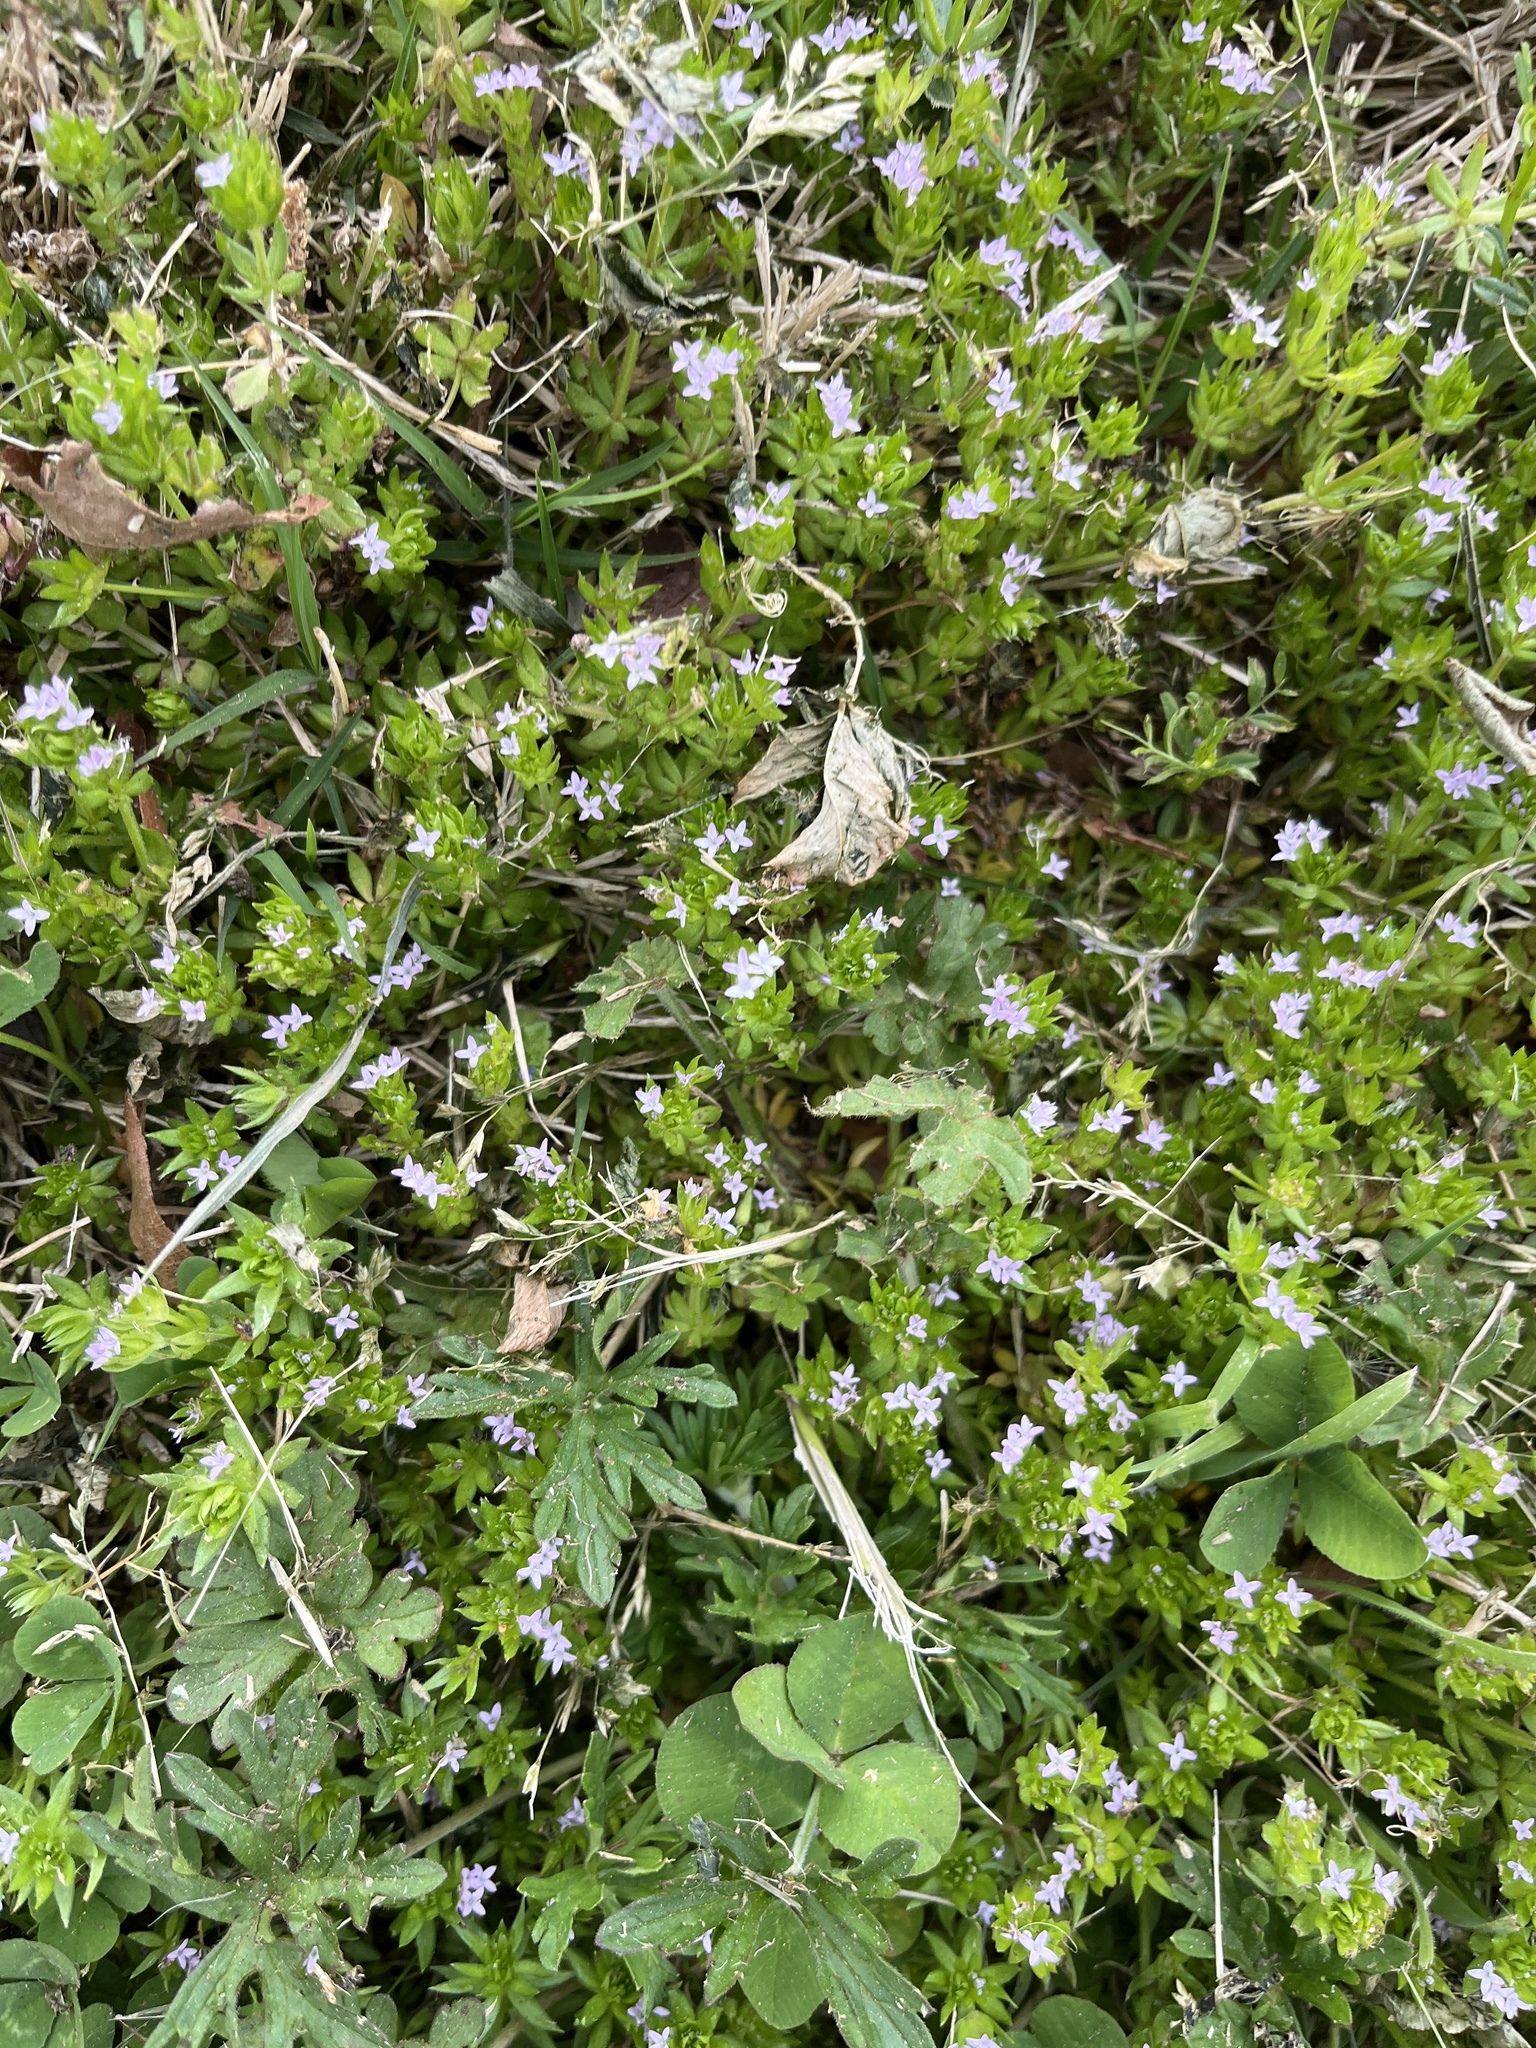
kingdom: Plantae
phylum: Tracheophyta
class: Magnoliopsida
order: Gentianales
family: Rubiaceae
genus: Sherardia
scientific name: Sherardia arvensis
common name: Field madder
